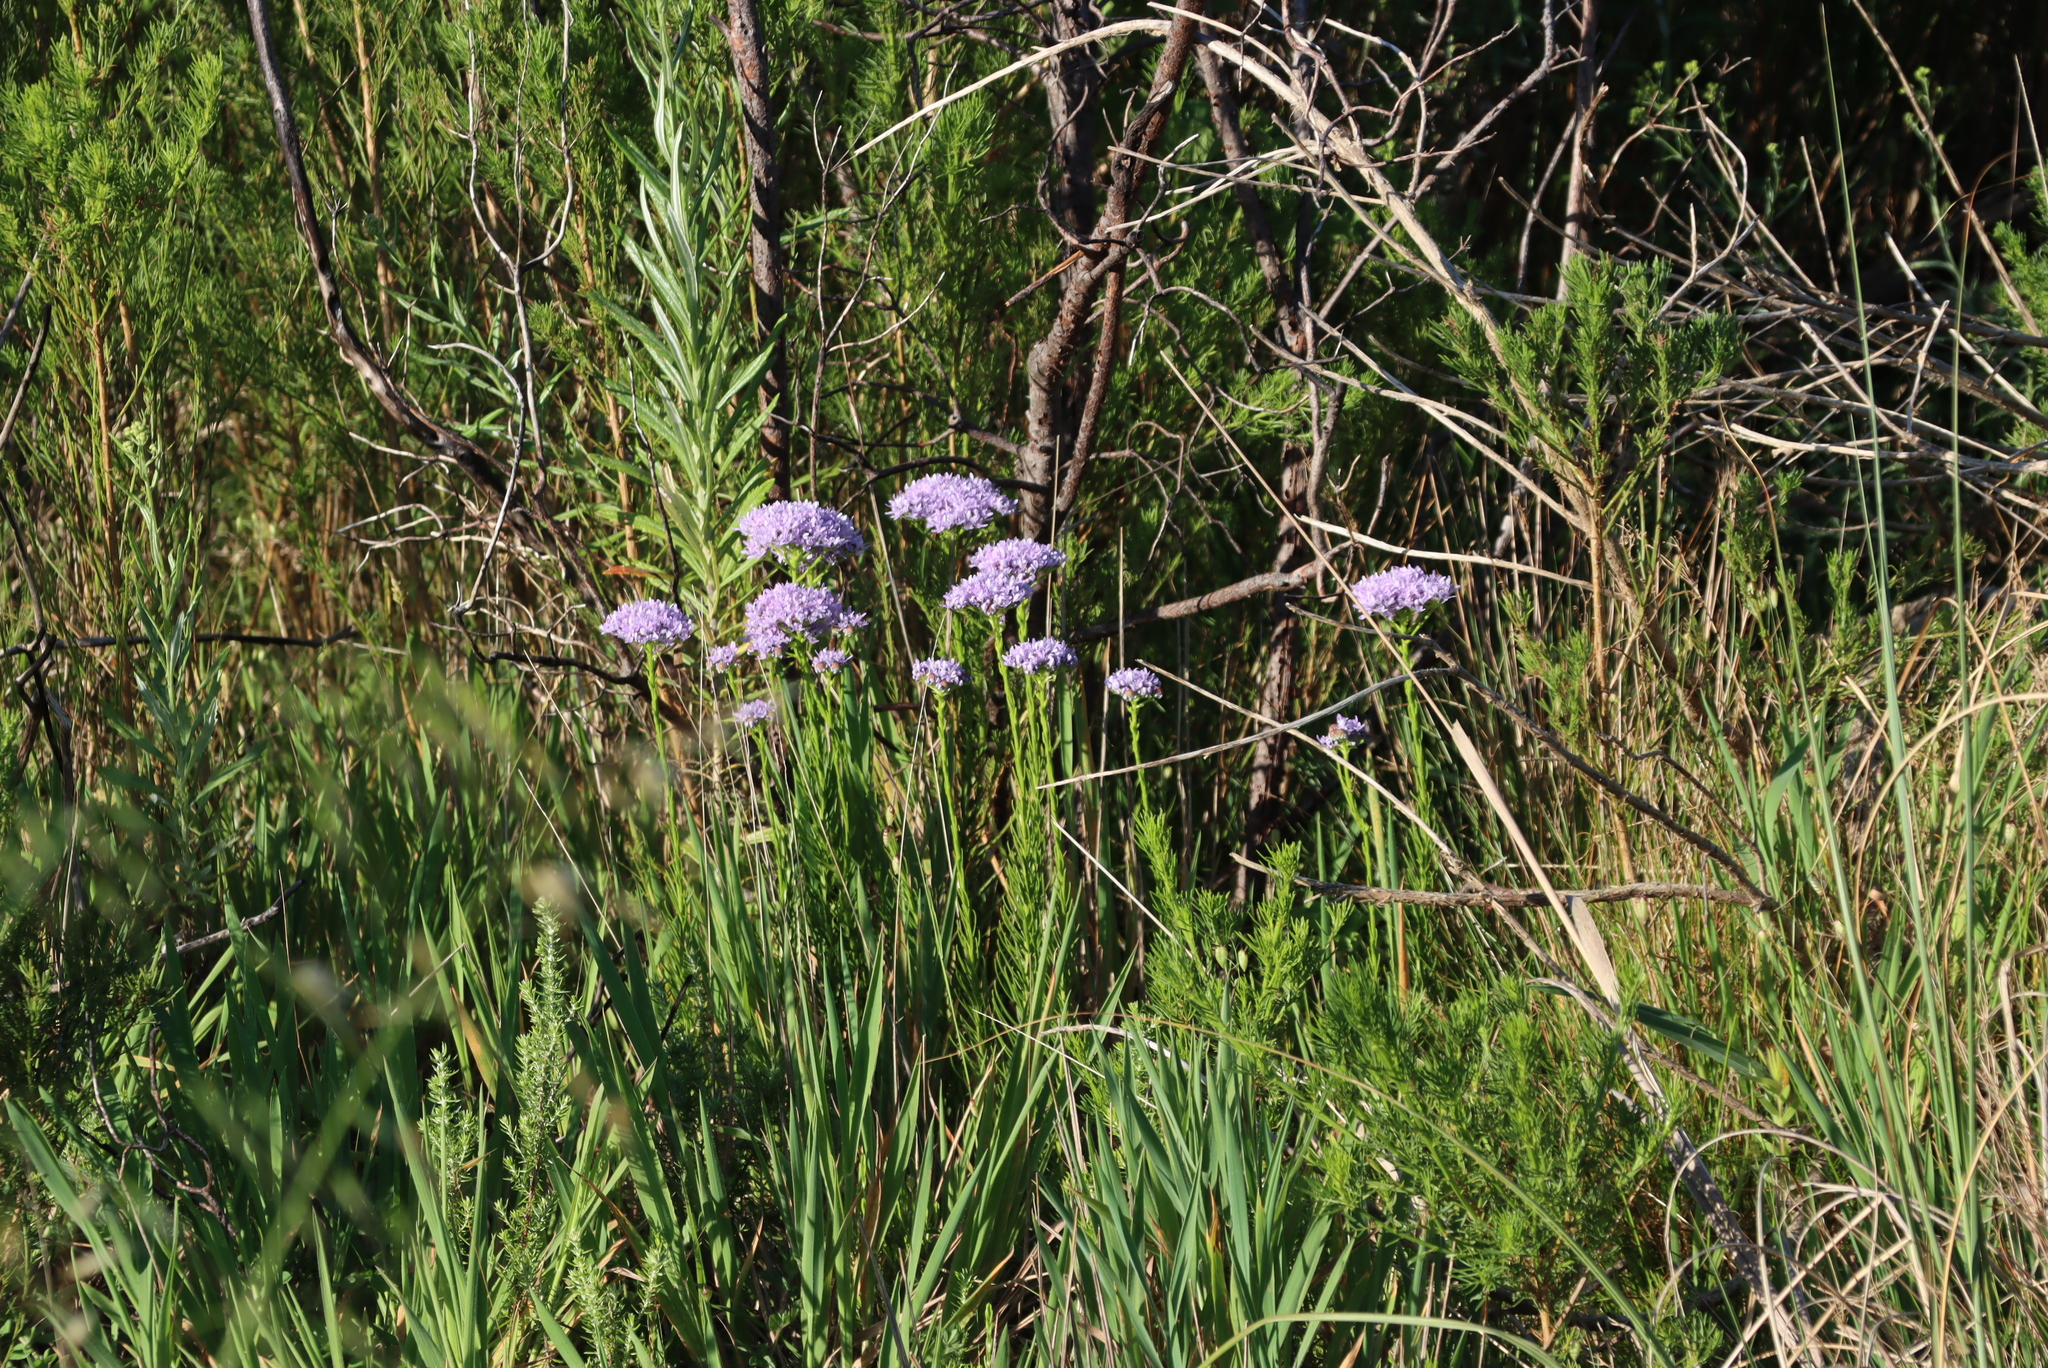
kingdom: Plantae
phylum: Tracheophyta
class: Magnoliopsida
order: Lamiales
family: Scrophulariaceae
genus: Pseudoselago
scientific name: Pseudoselago spuria
